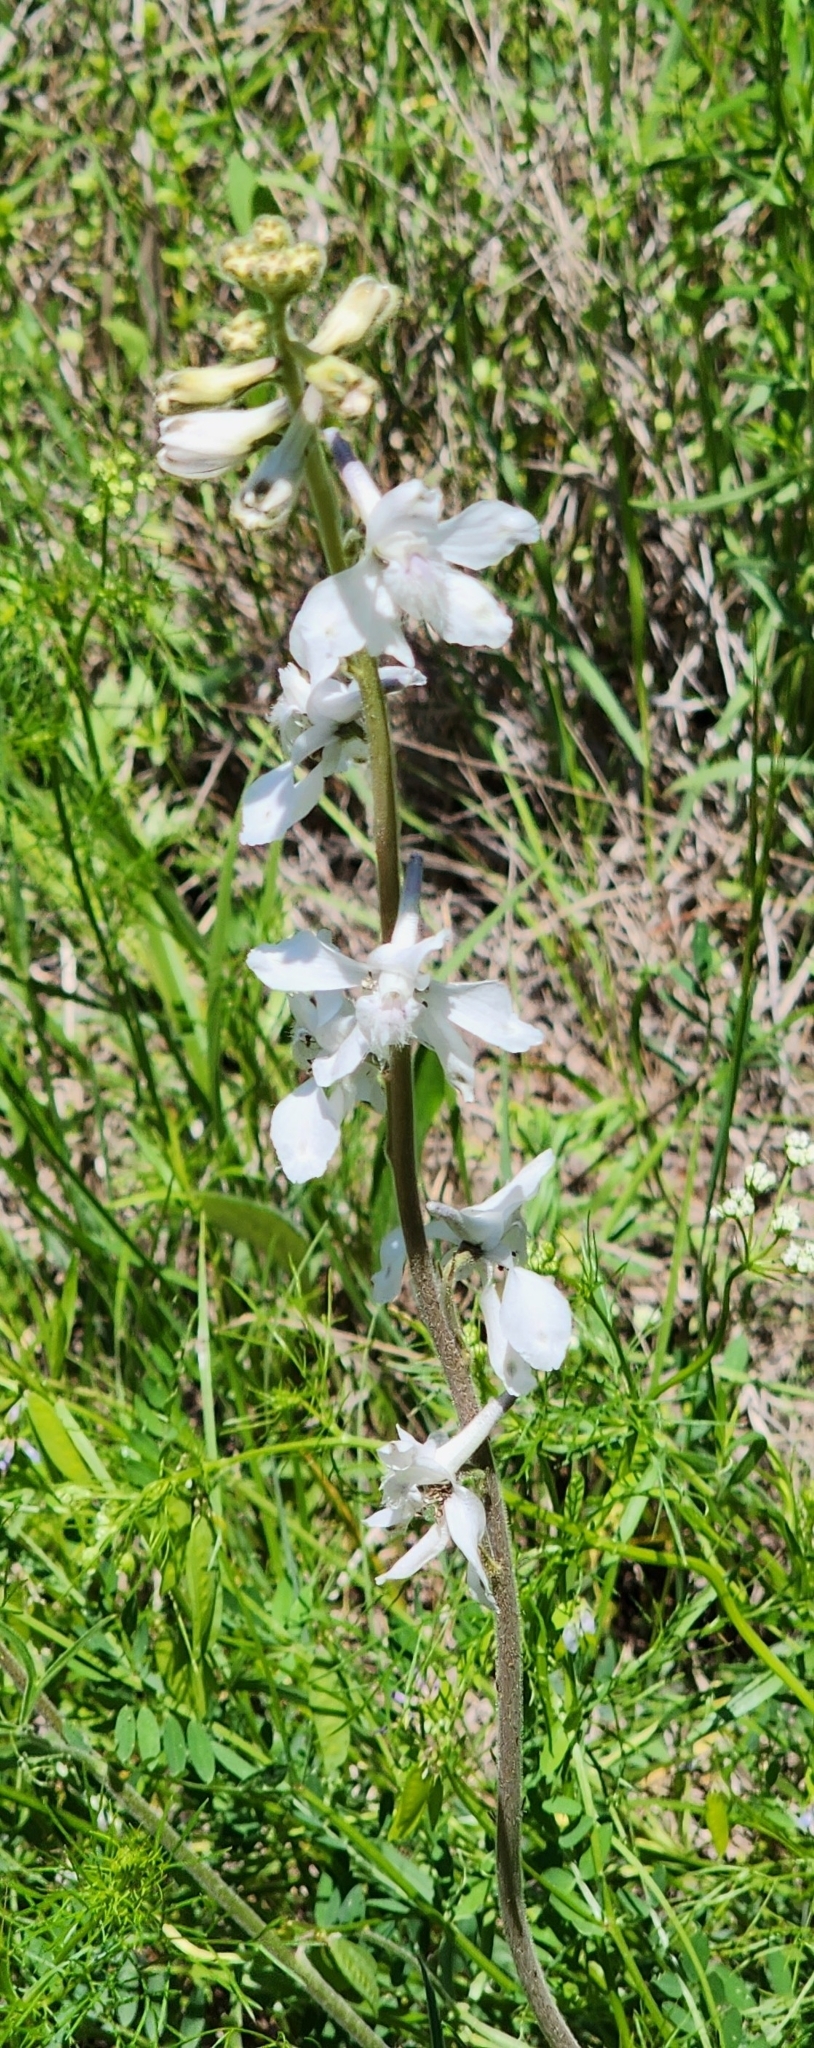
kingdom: Plantae
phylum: Tracheophyta
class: Magnoliopsida
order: Ranunculales
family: Ranunculaceae
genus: Delphinium
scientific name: Delphinium carolinianum
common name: Carolina larkspur
